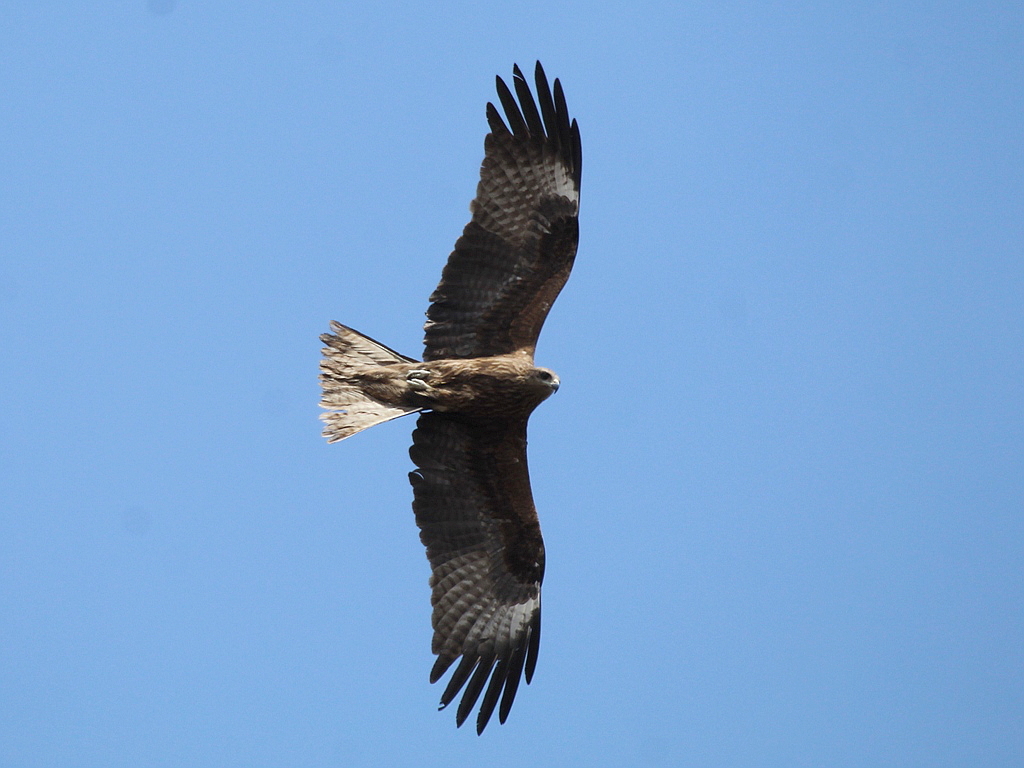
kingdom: Animalia
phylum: Chordata
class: Aves
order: Accipitriformes
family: Accipitridae
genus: Milvus
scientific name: Milvus migrans
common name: Black kite
